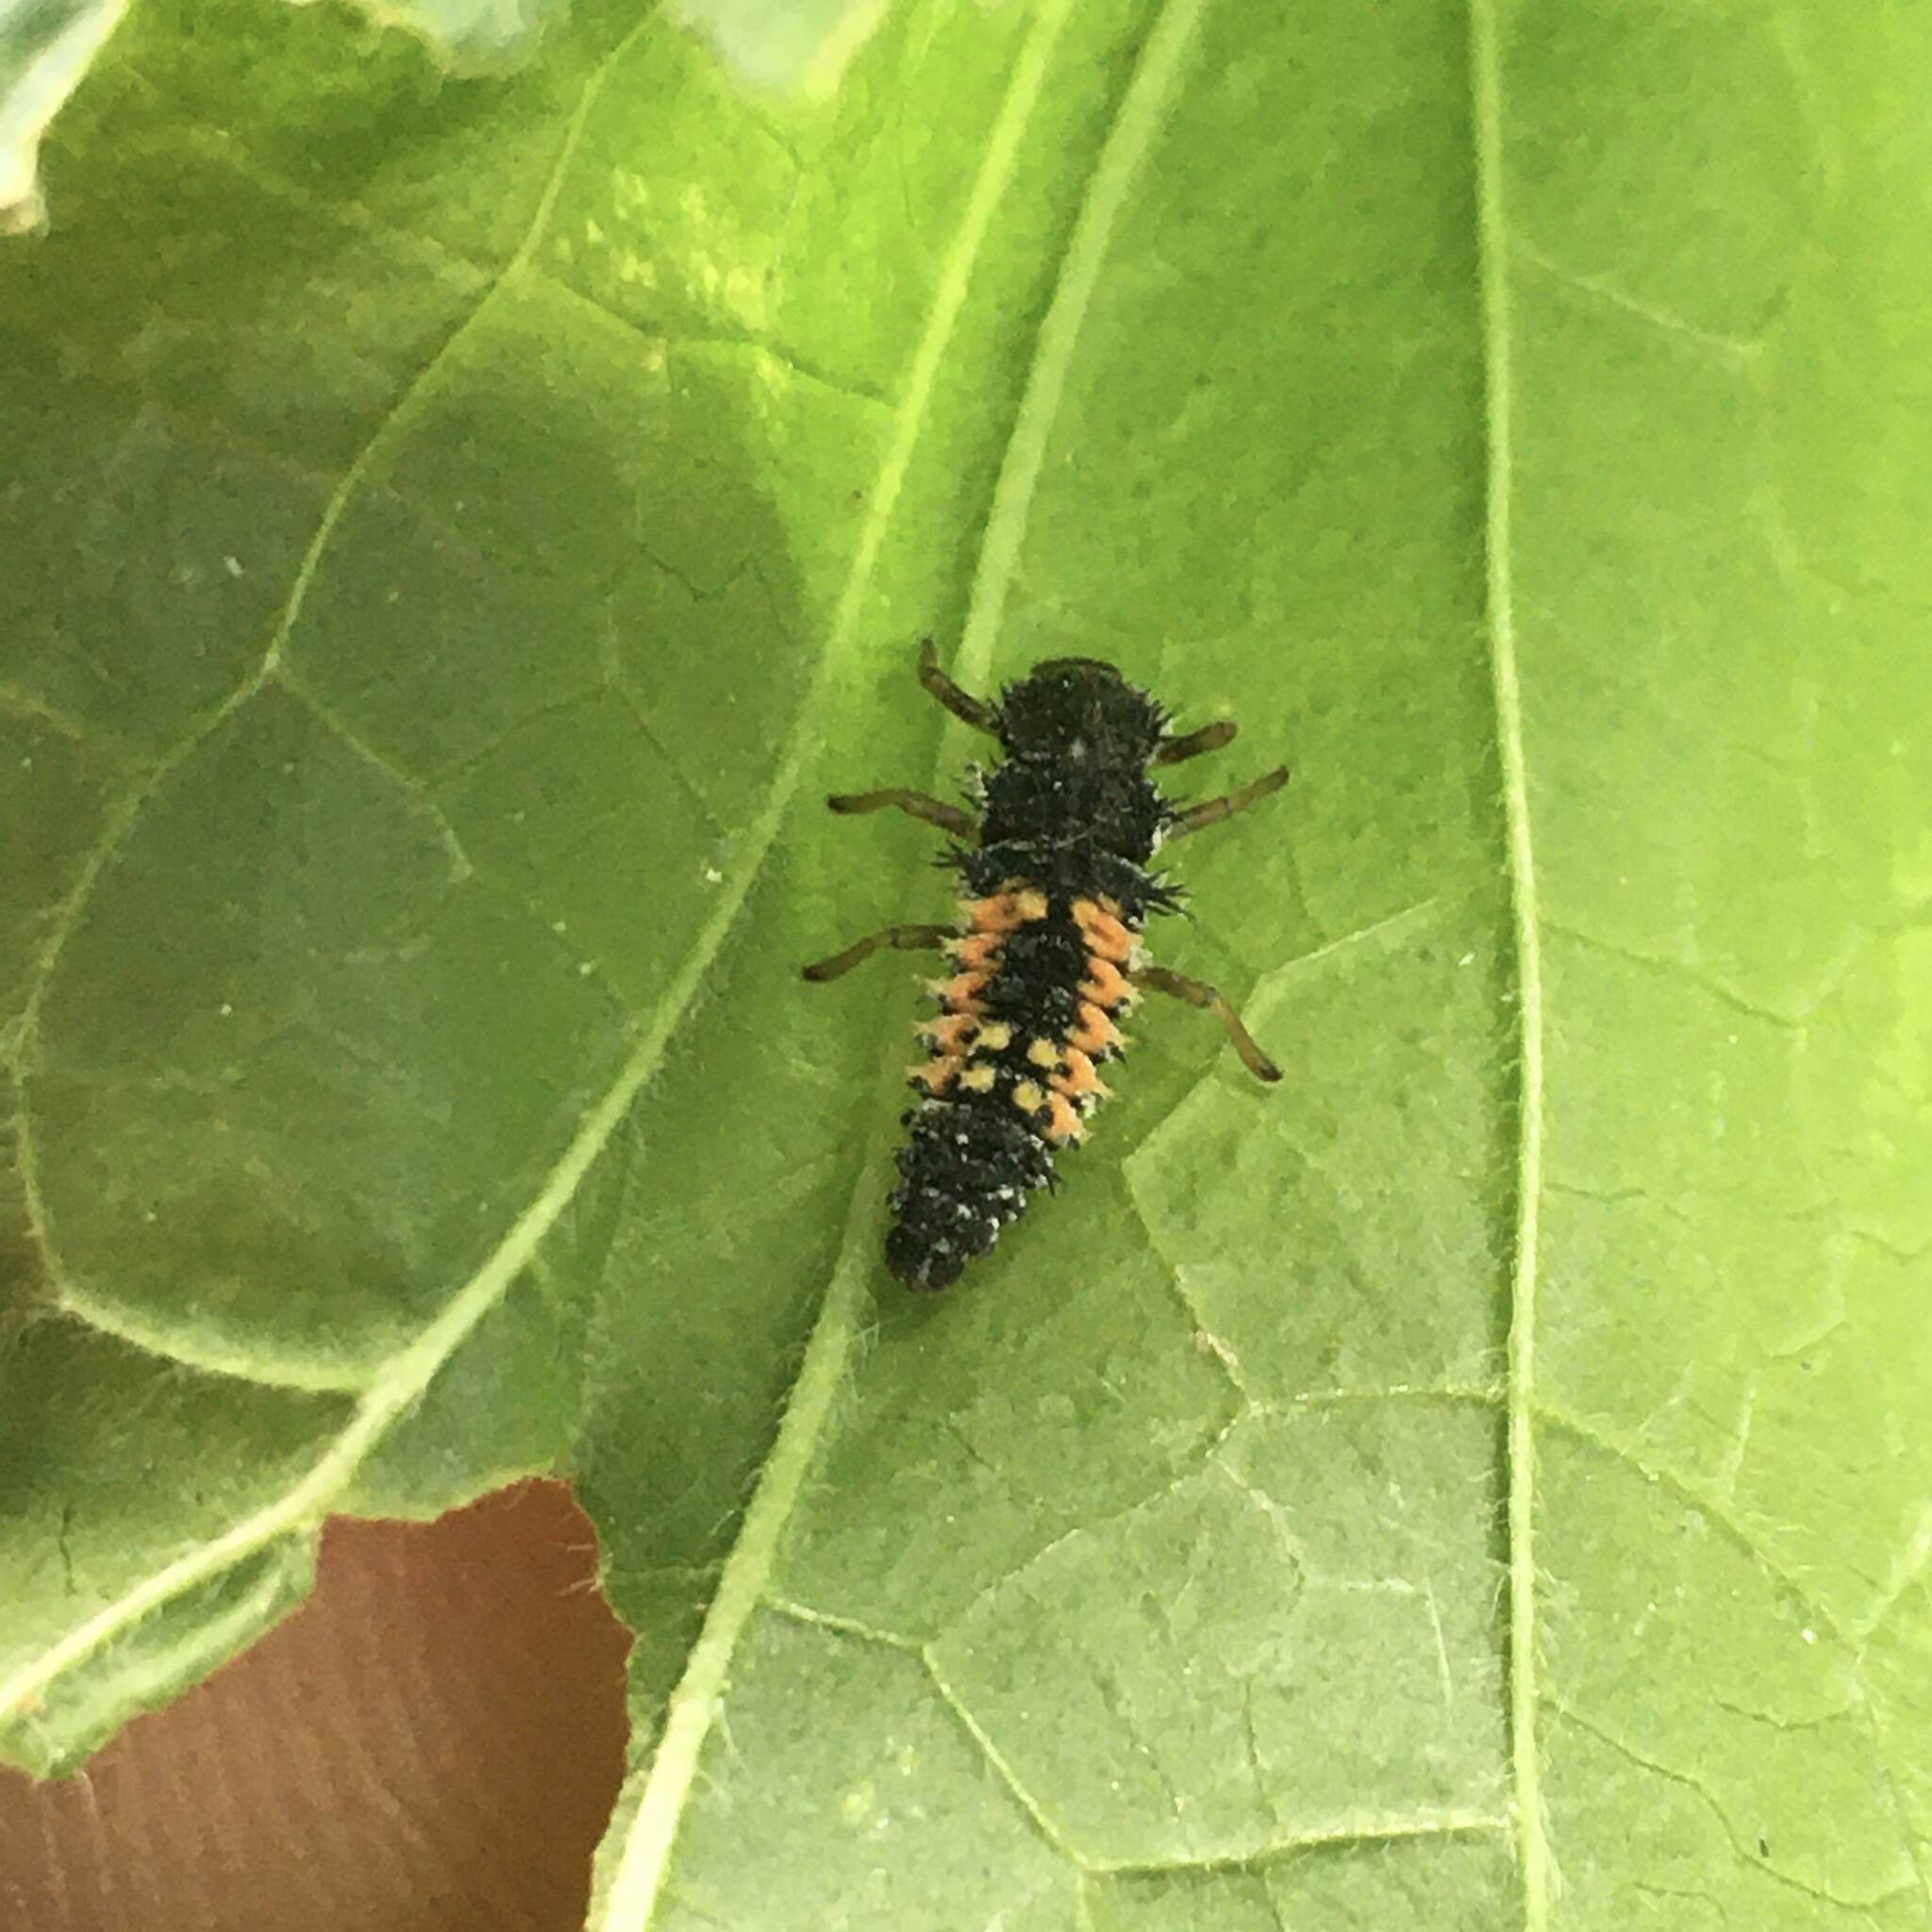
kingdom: Animalia
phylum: Arthropoda
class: Insecta
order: Coleoptera
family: Coccinellidae
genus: Harmonia
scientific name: Harmonia axyridis
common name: Harlequin ladybird
